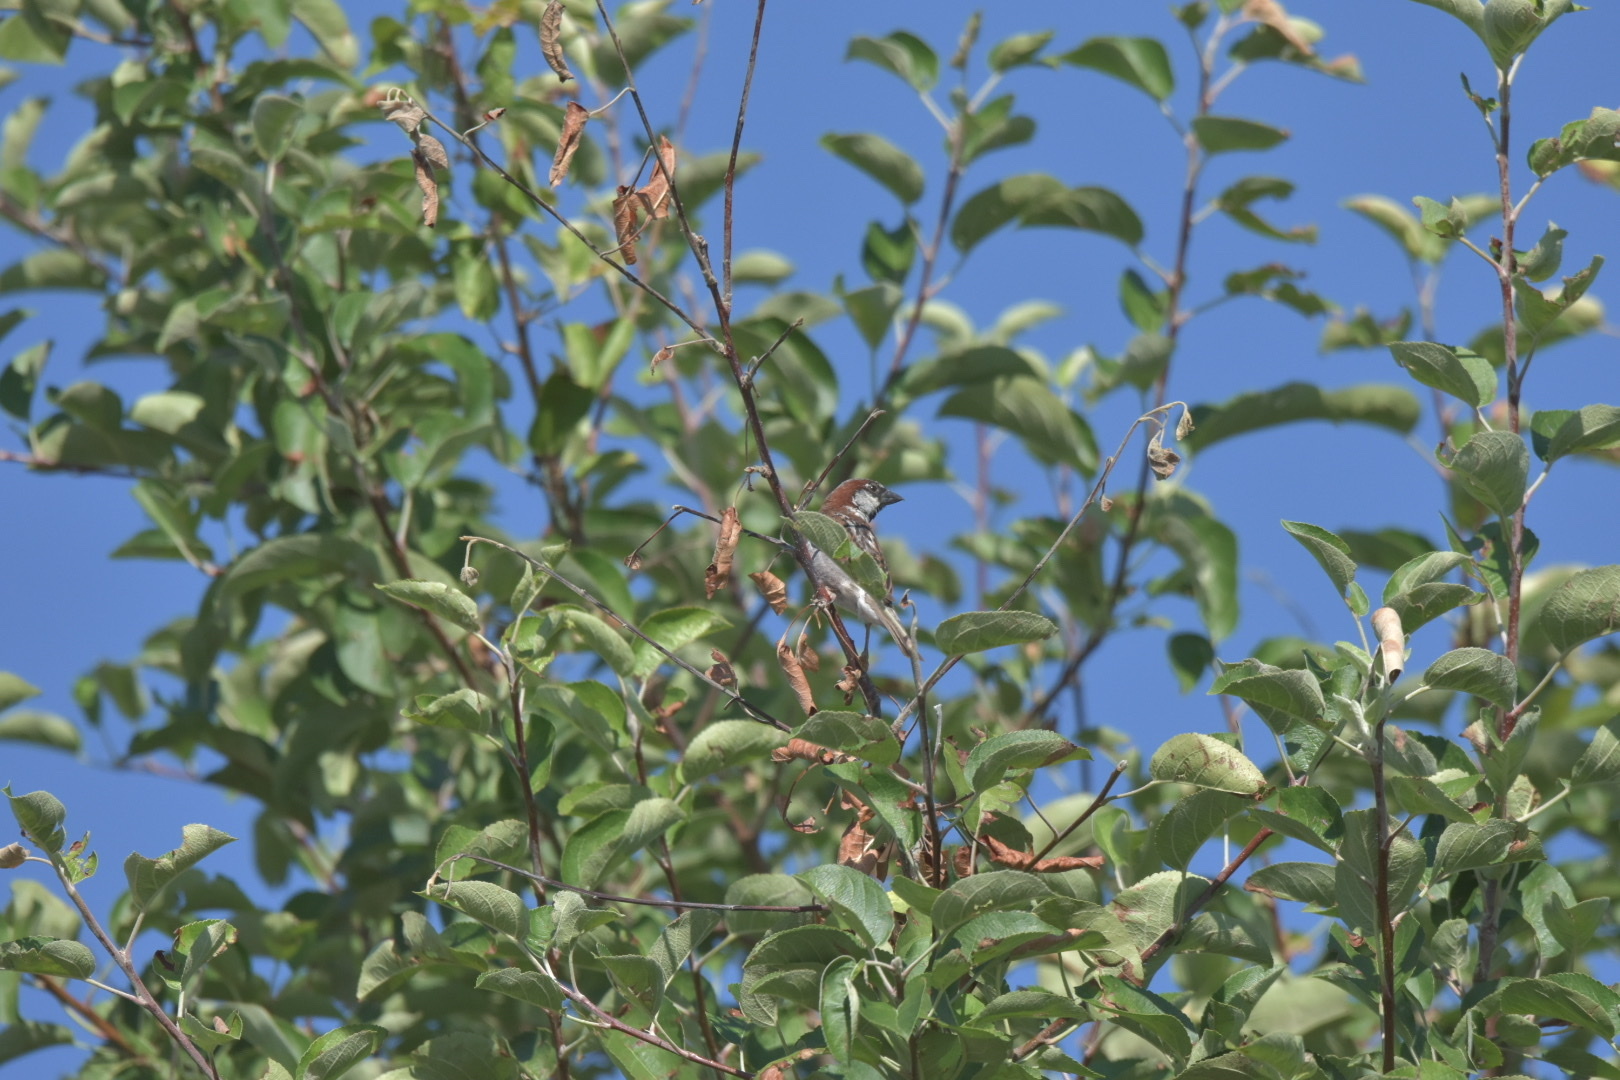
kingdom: Animalia
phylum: Chordata
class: Aves
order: Passeriformes
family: Passeridae
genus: Passer
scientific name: Passer domesticus
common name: House sparrow
